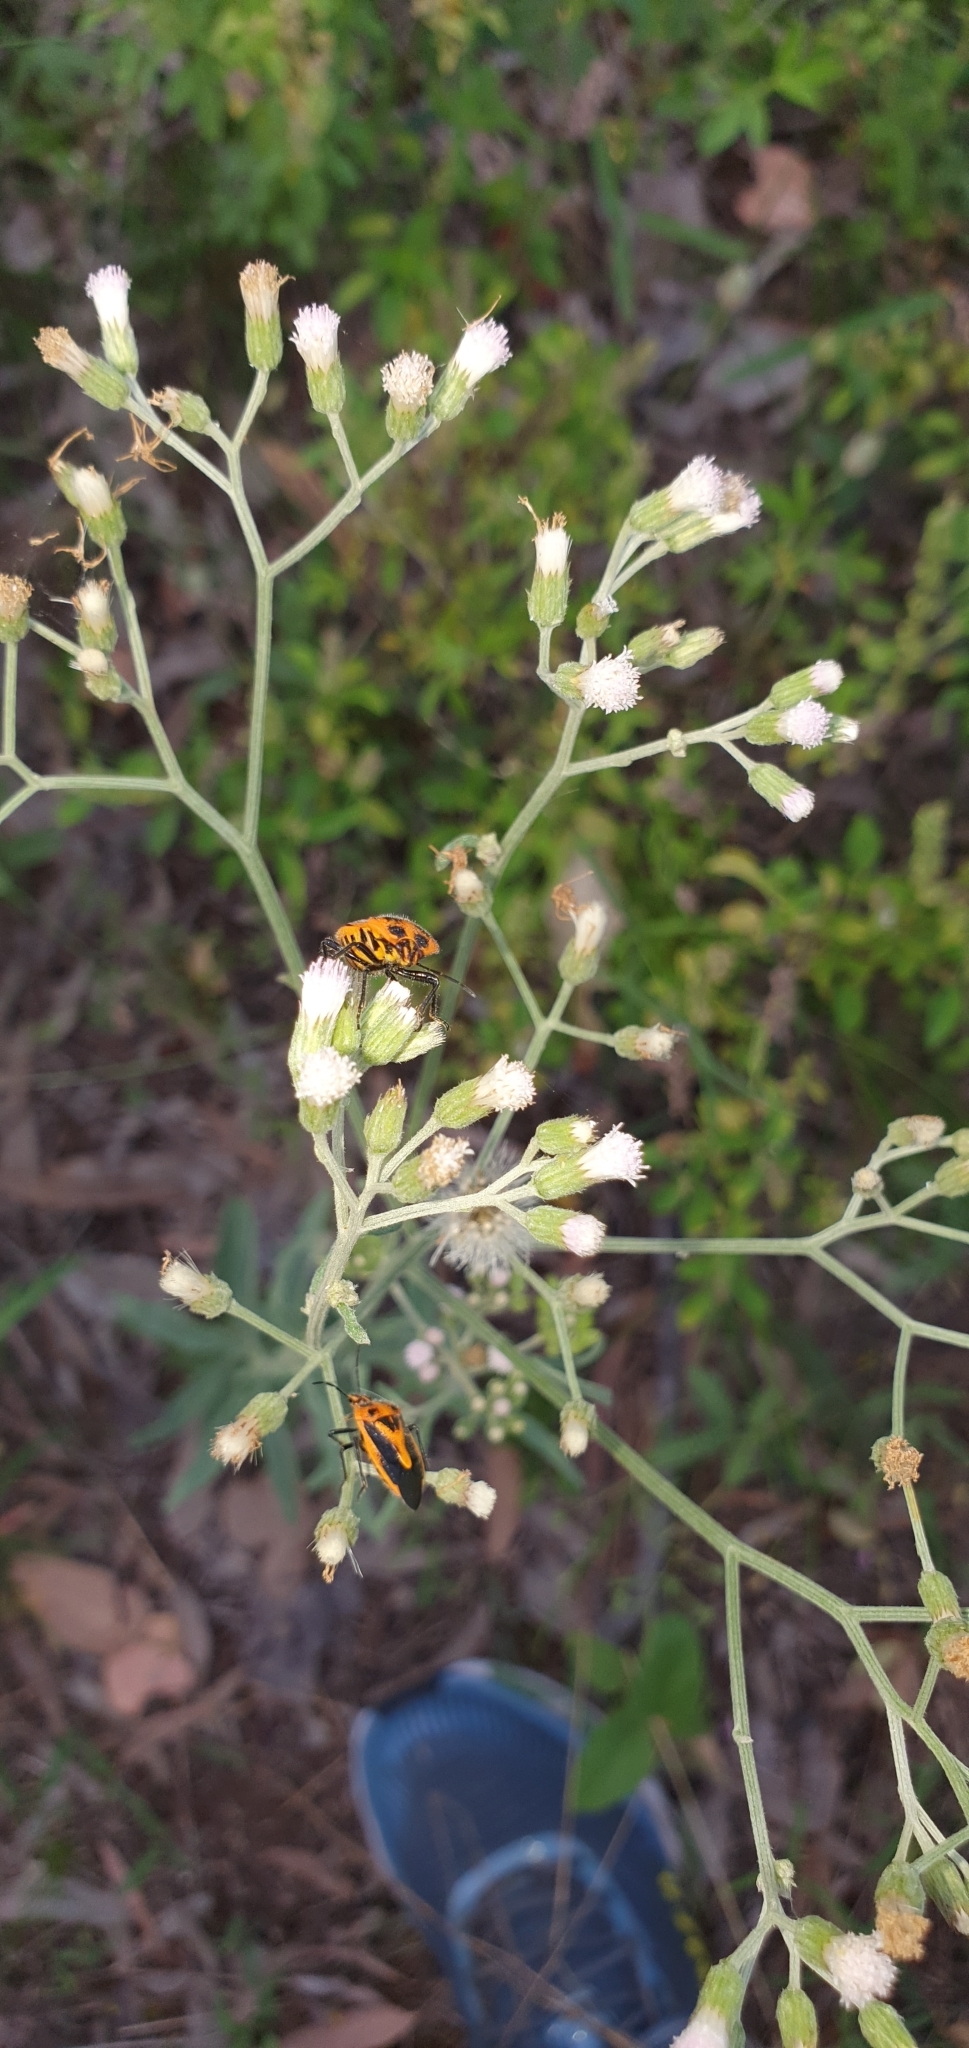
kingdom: Animalia
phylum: Arthropoda
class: Insecta
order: Hemiptera
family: Pentatomidae
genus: Agonoscelis
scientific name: Agonoscelis rutila
